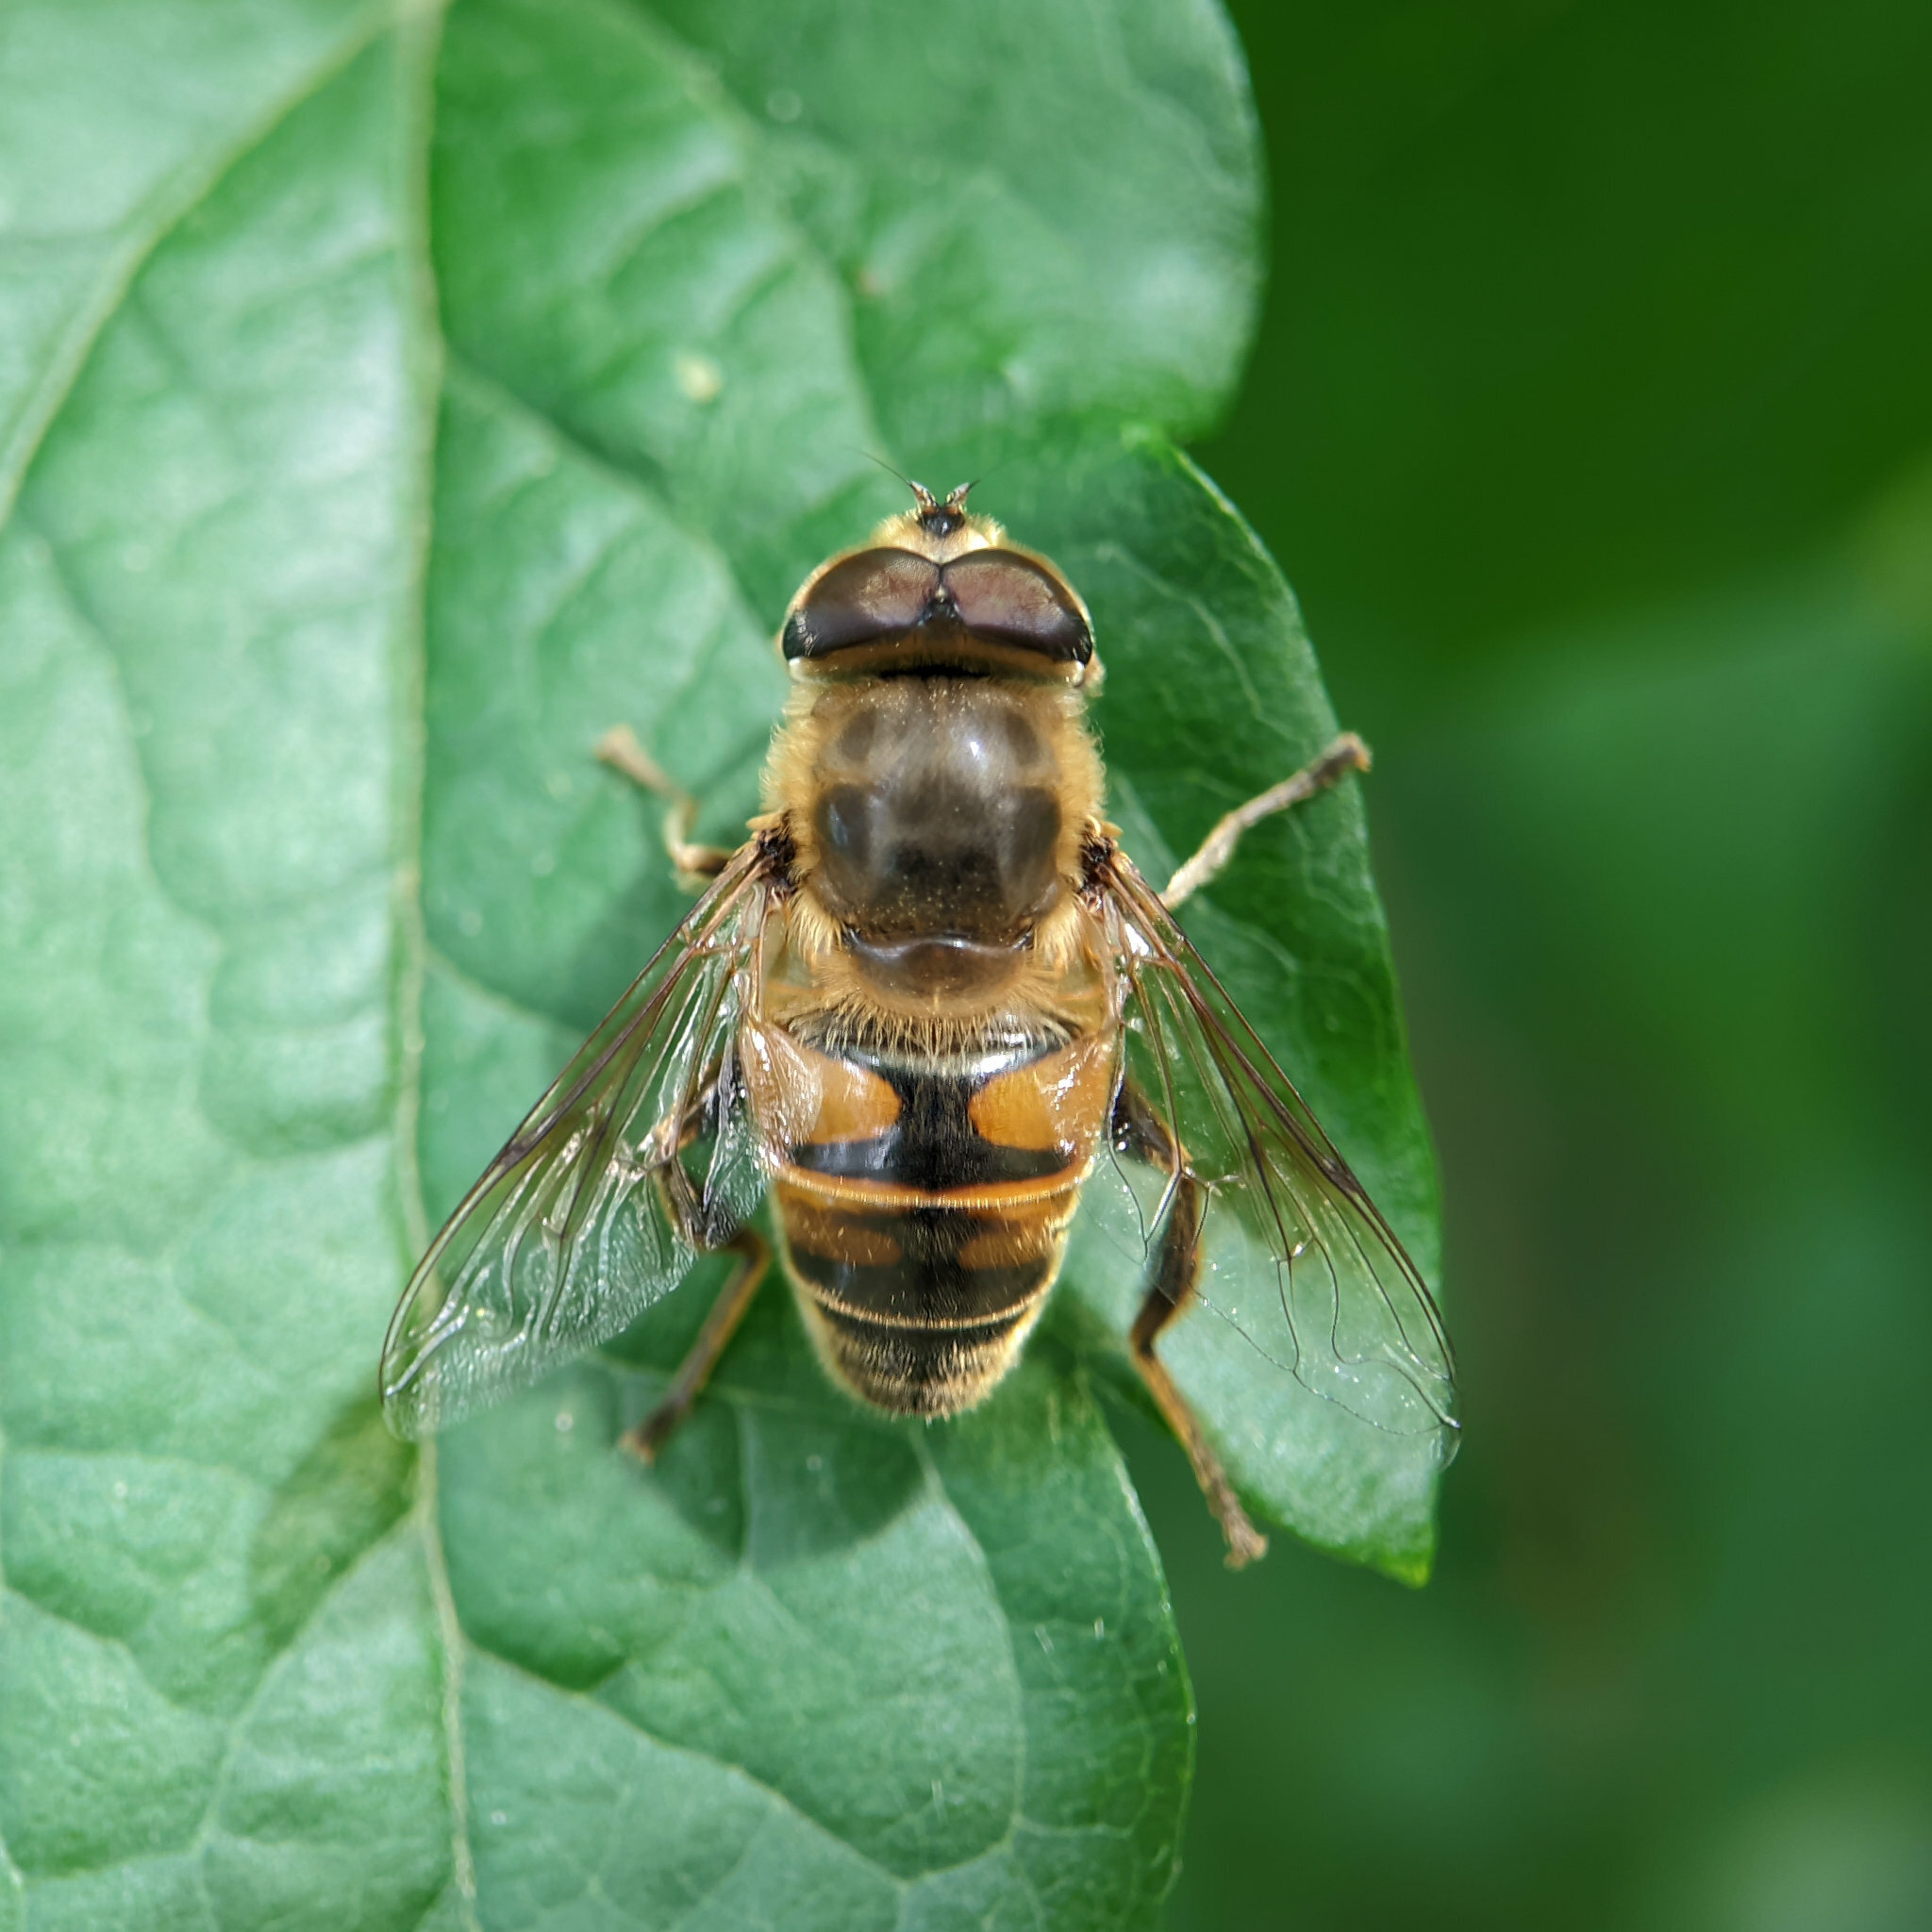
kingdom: Animalia
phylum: Arthropoda
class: Insecta
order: Diptera
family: Syrphidae
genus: Eristalis
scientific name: Eristalis tenax
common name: Drone fly
